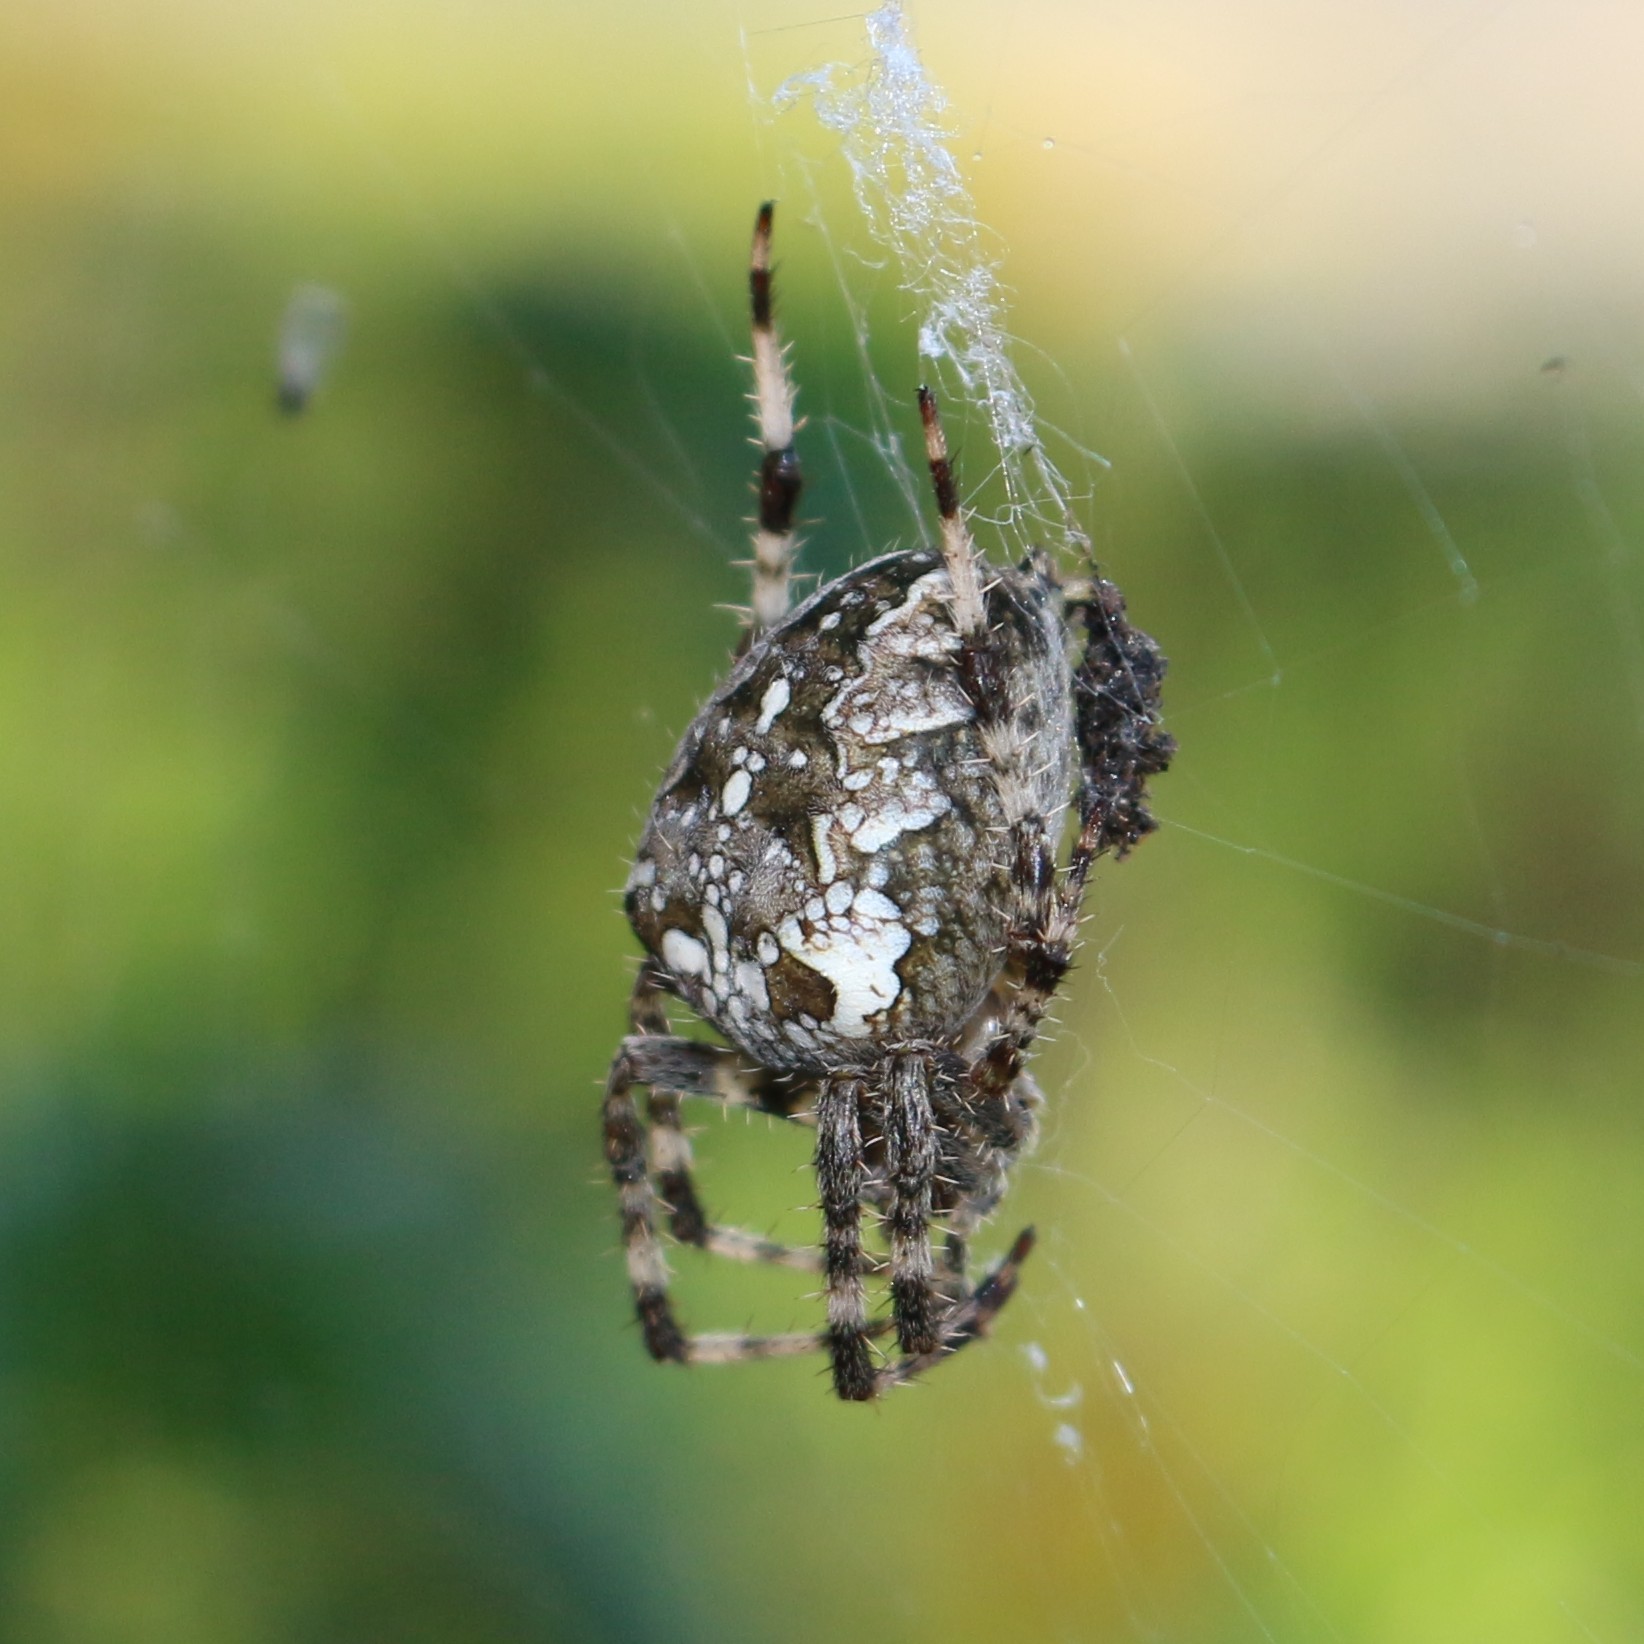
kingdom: Animalia
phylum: Arthropoda
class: Arachnida
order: Araneae
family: Araneidae
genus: Araneus
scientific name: Araneus diadematus
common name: Cross orbweaver
